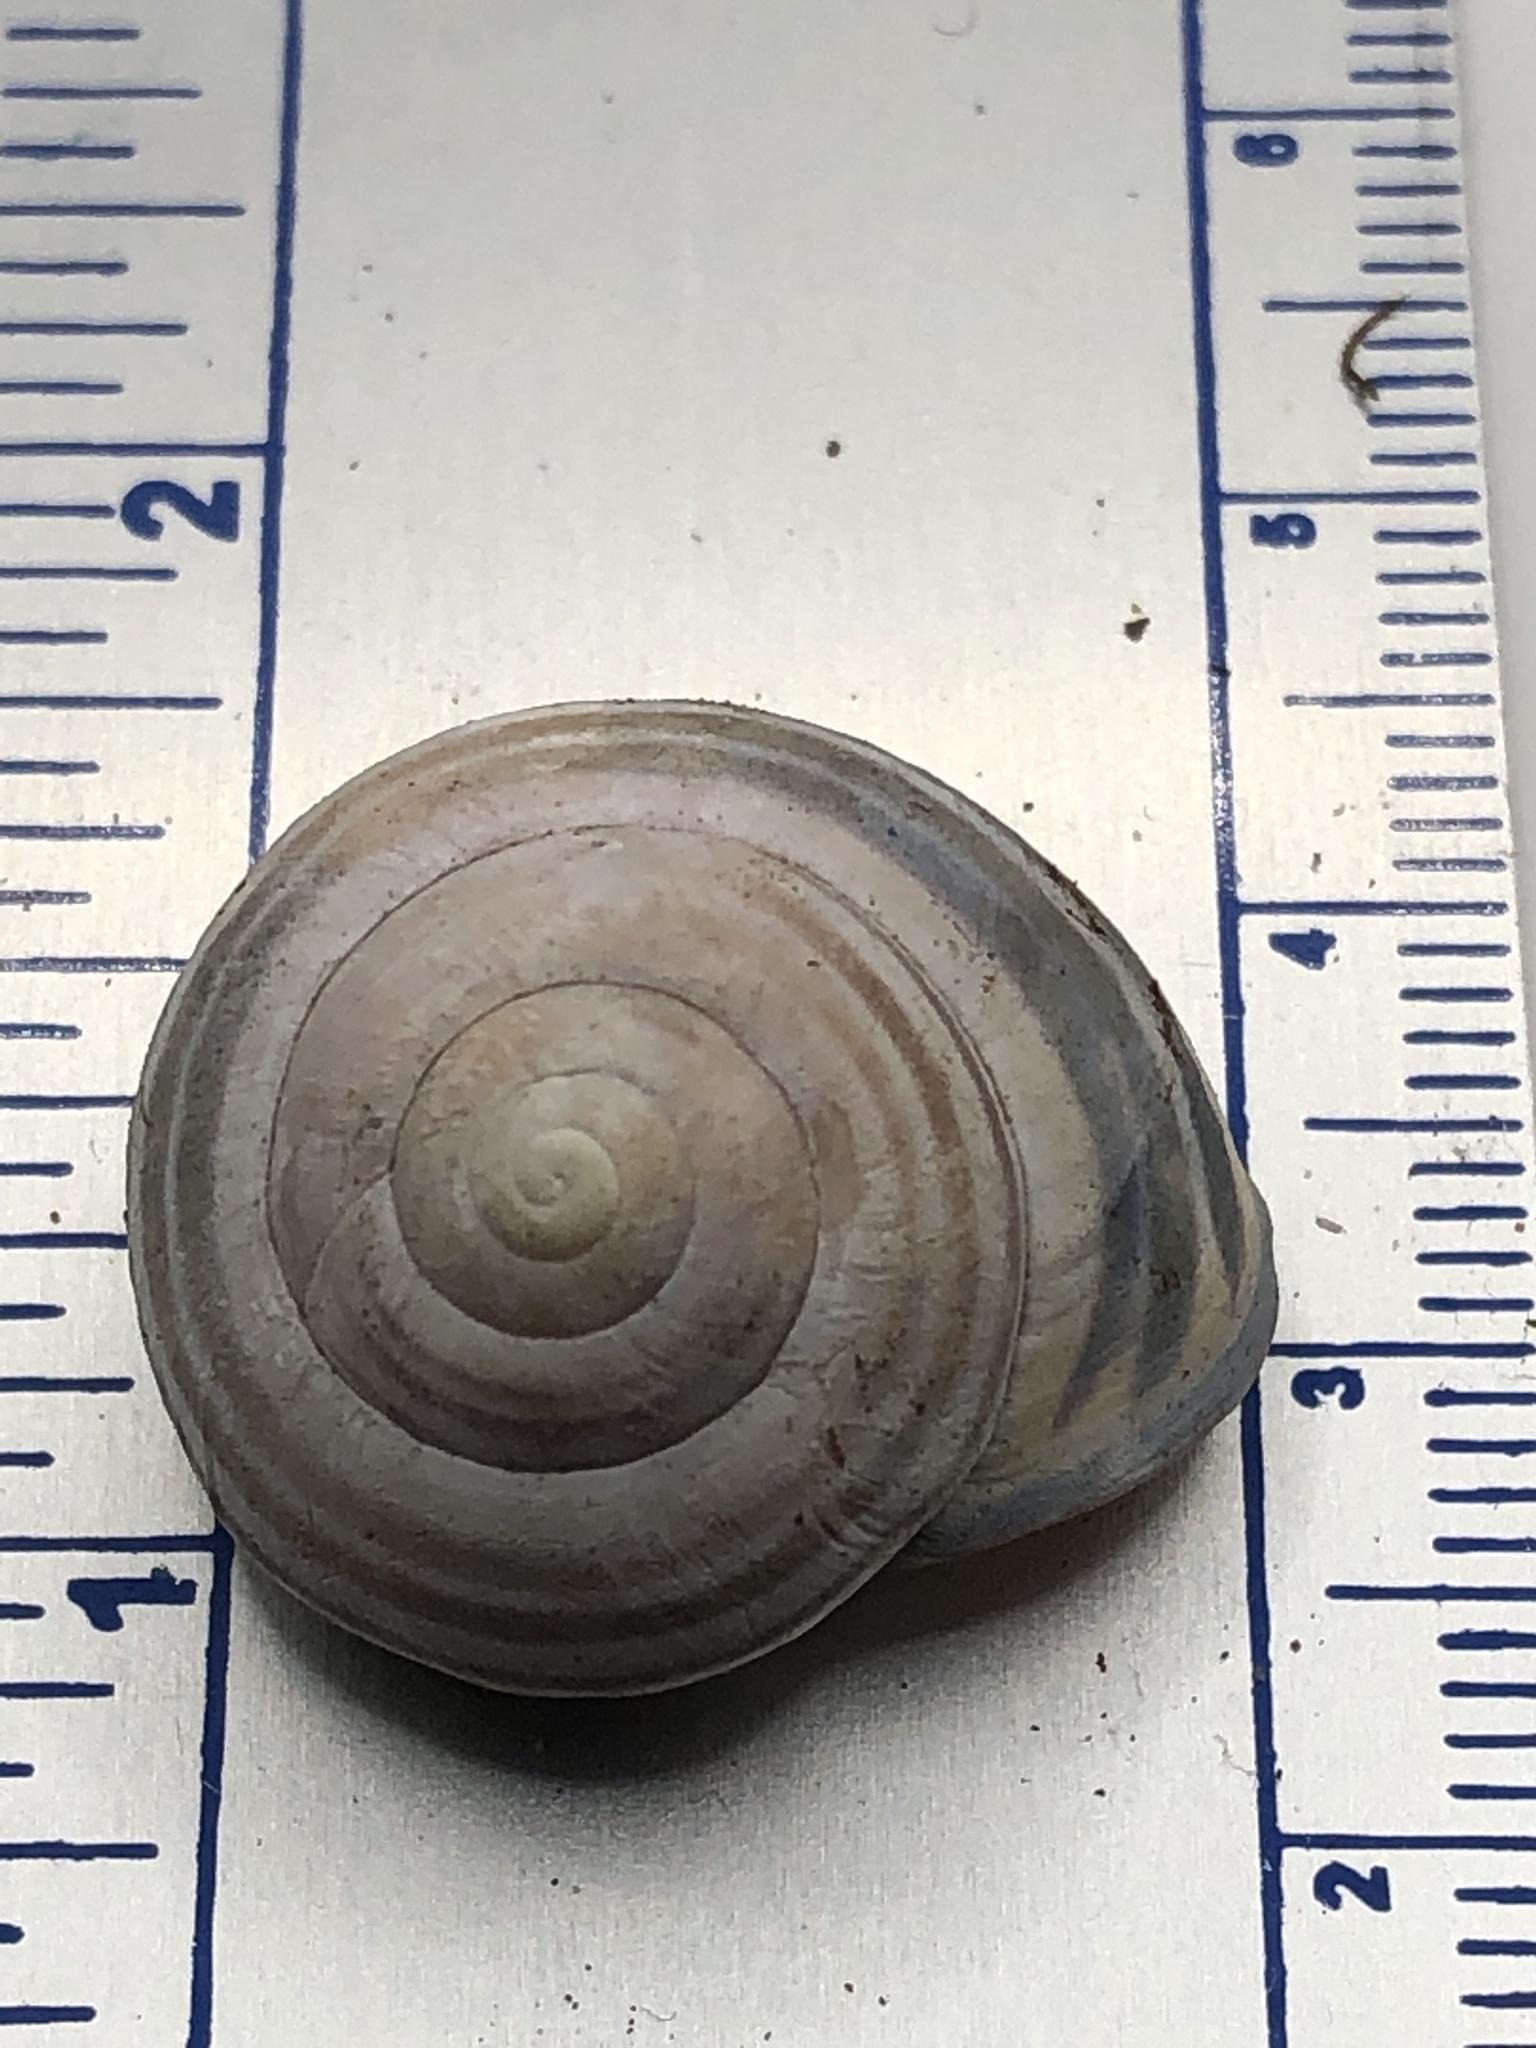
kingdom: Animalia
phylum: Mollusca
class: Gastropoda
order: Stylommatophora
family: Helicidae
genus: Cepaea
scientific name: Cepaea nemoralis
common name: Grovesnail
